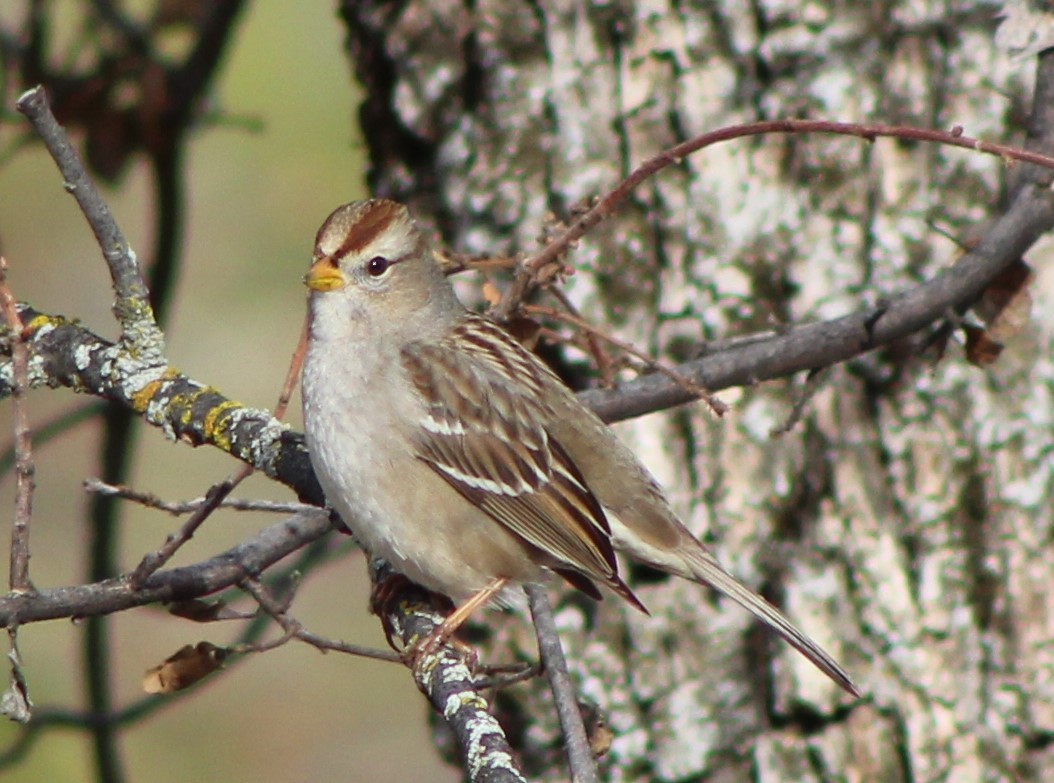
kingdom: Animalia
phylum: Chordata
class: Aves
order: Passeriformes
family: Passerellidae
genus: Zonotrichia
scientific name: Zonotrichia leucophrys
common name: White-crowned sparrow
